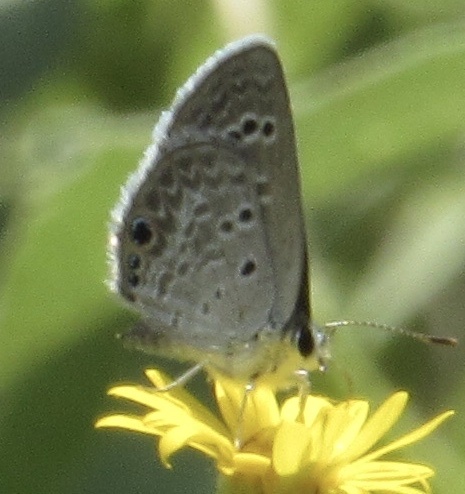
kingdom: Animalia
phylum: Arthropoda
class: Insecta
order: Lepidoptera
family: Lycaenidae
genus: Echinargus
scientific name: Echinargus isola
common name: Reakirt's blue
